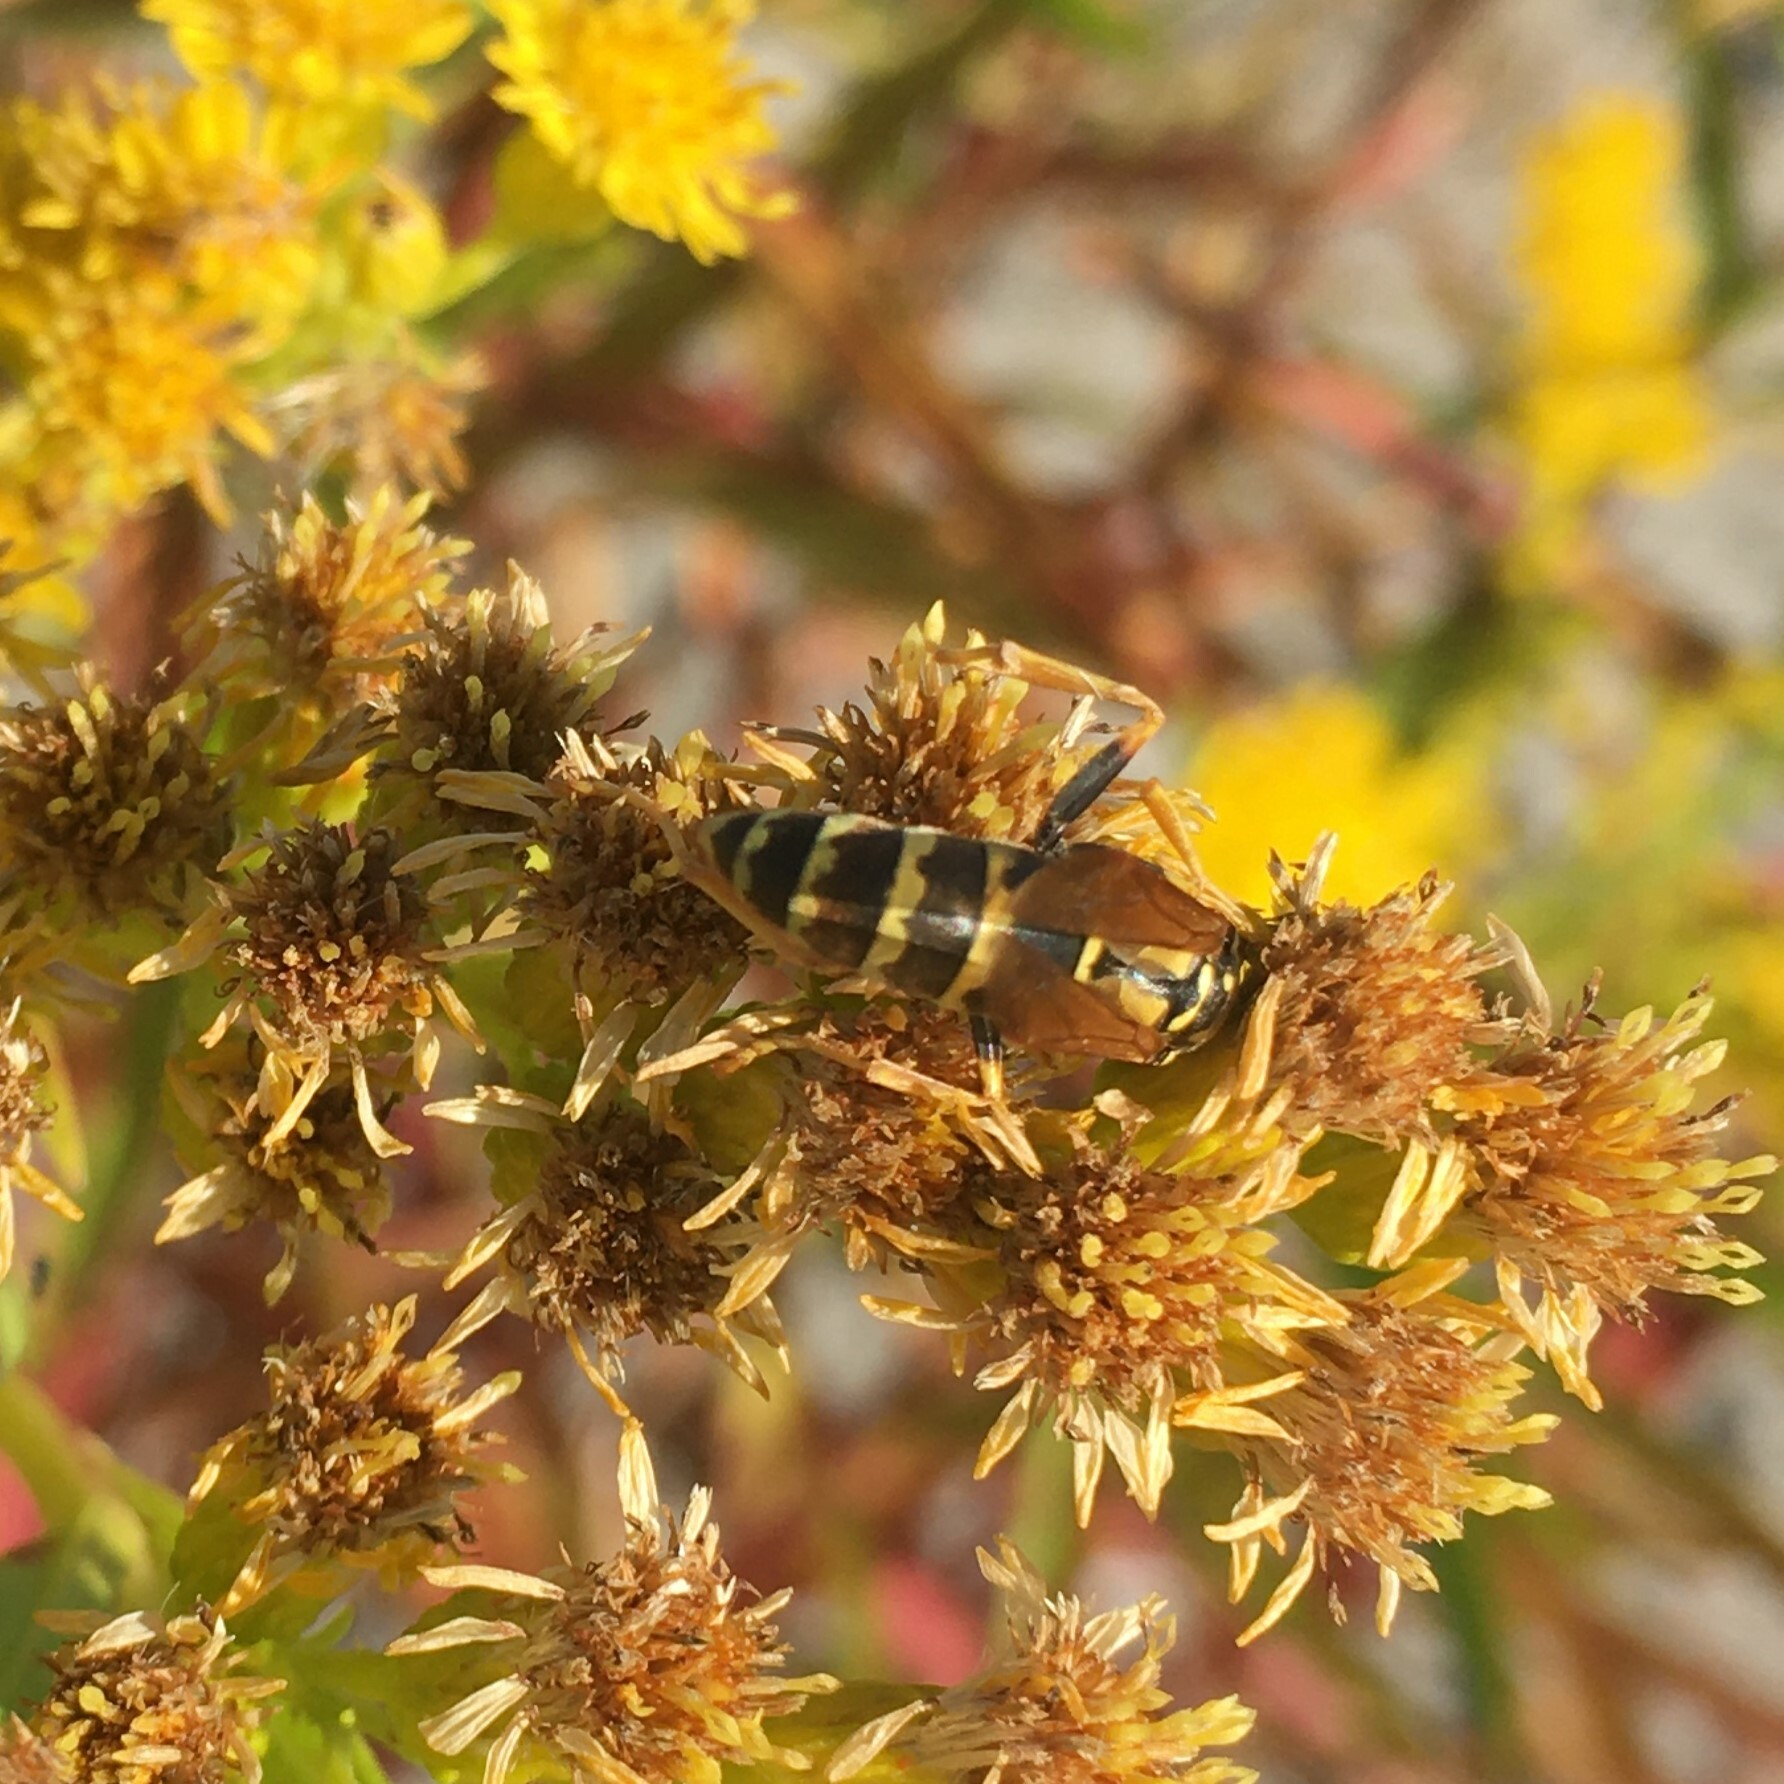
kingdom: Animalia
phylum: Arthropoda
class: Insecta
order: Hymenoptera
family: Eumenidae
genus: Polistes
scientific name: Polistes dominula
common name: Paper wasp
